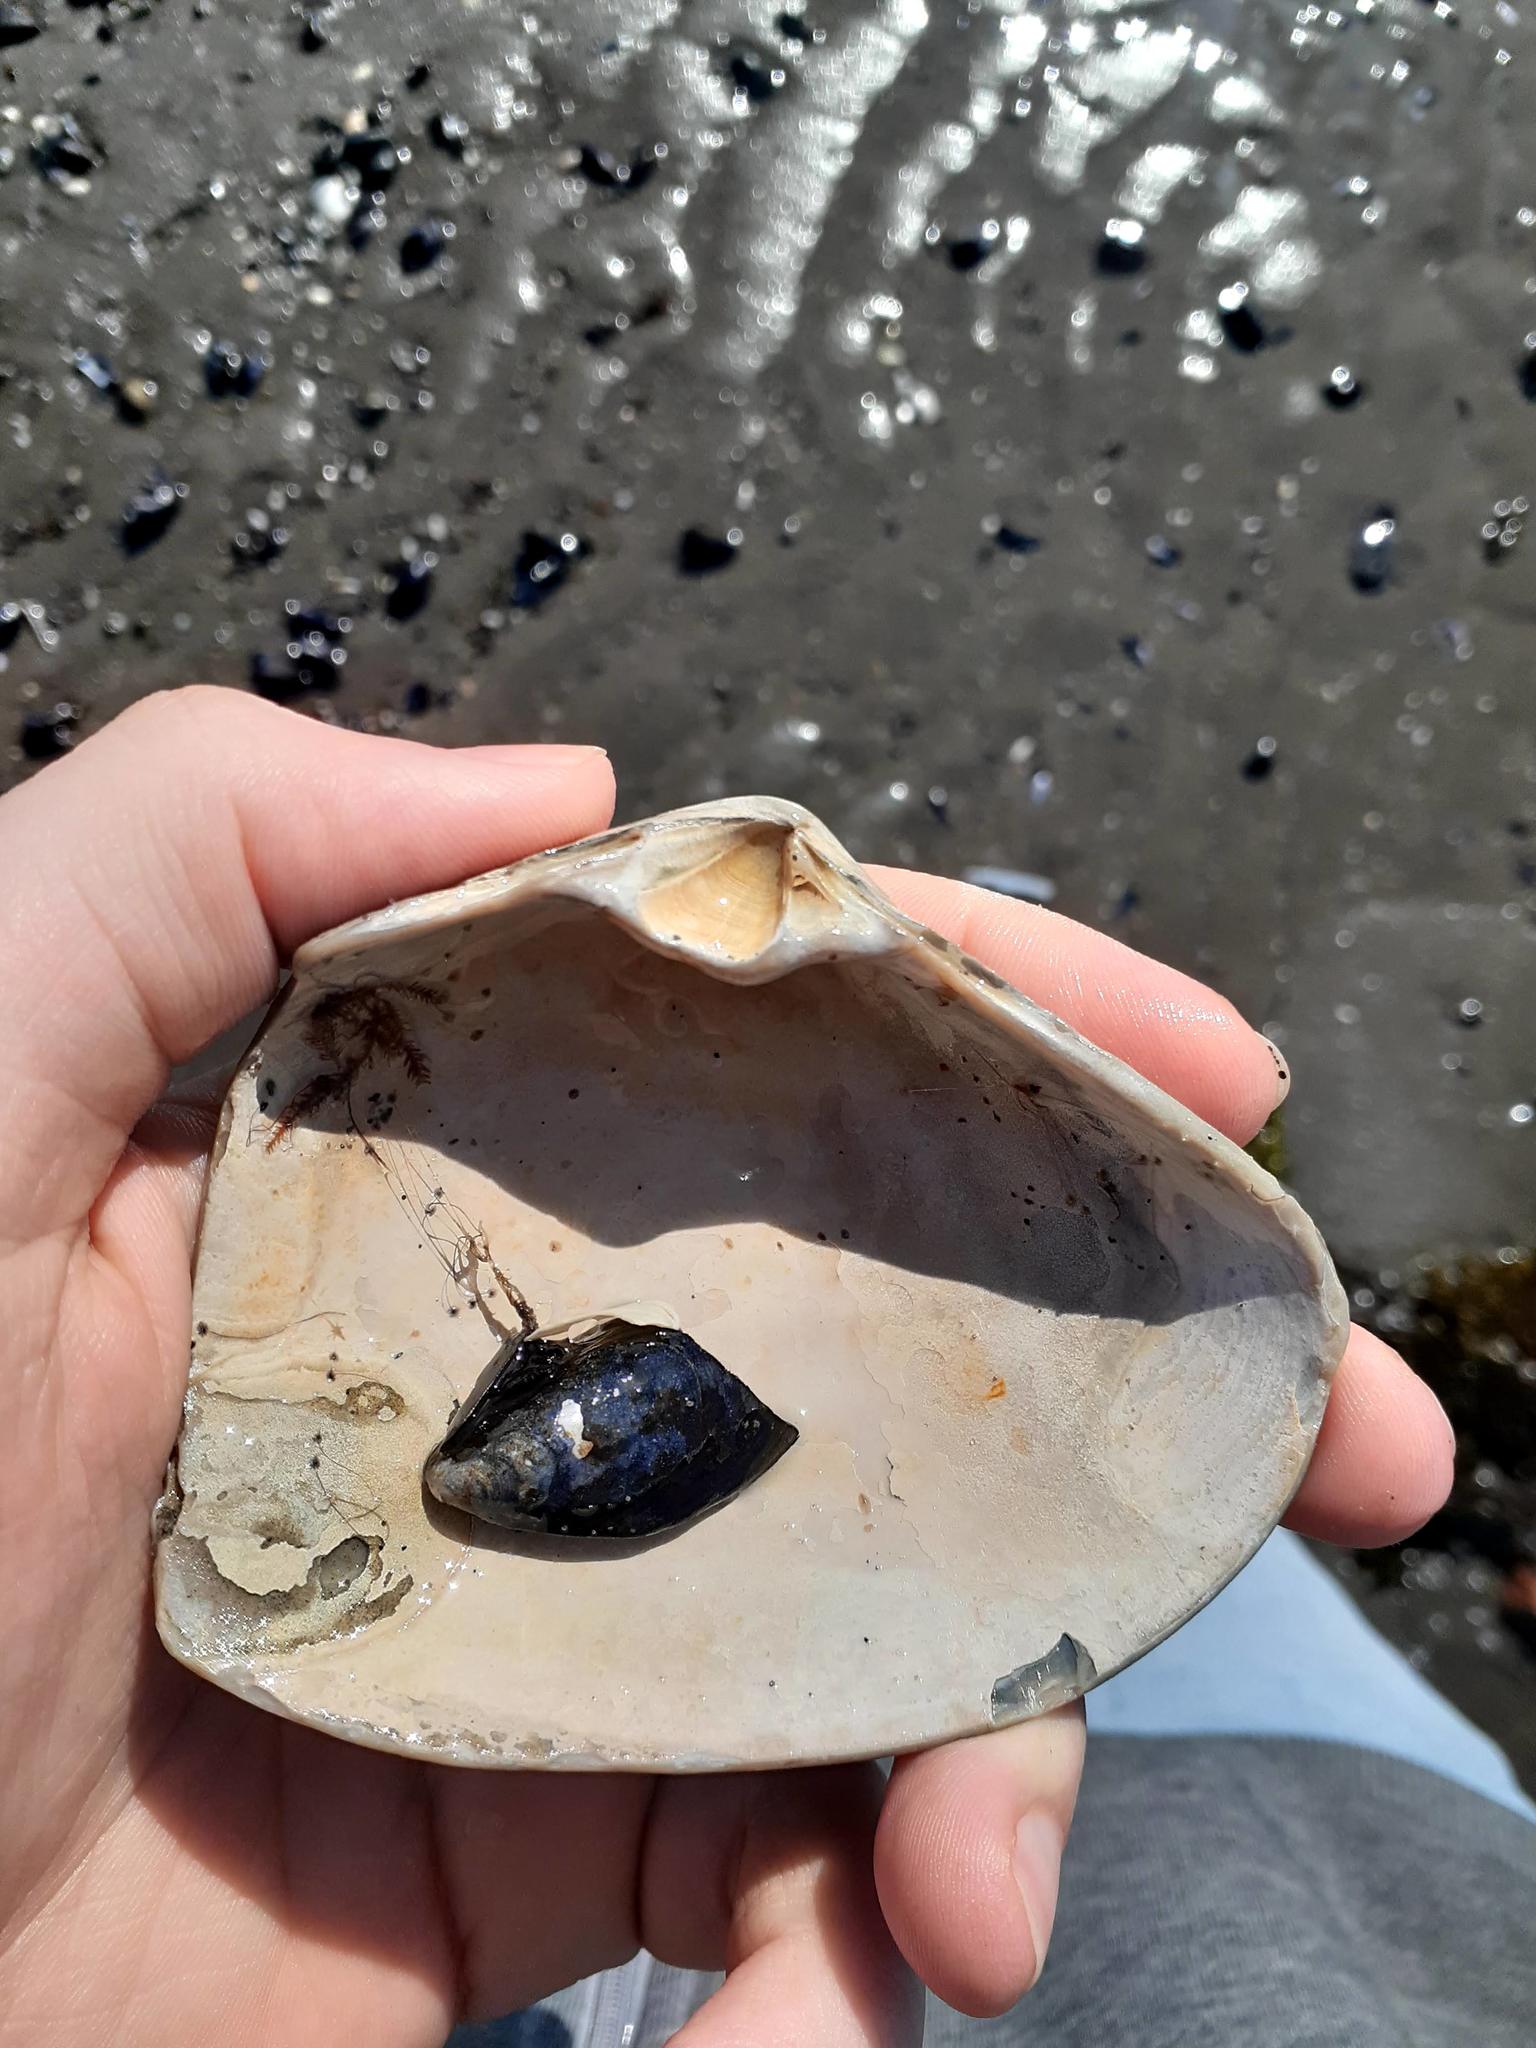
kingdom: Animalia
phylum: Mollusca
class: Bivalvia
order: Venerida
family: Mactridae
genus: Mactromeris
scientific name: Mactromeris polynyma
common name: Arctic surf clam
